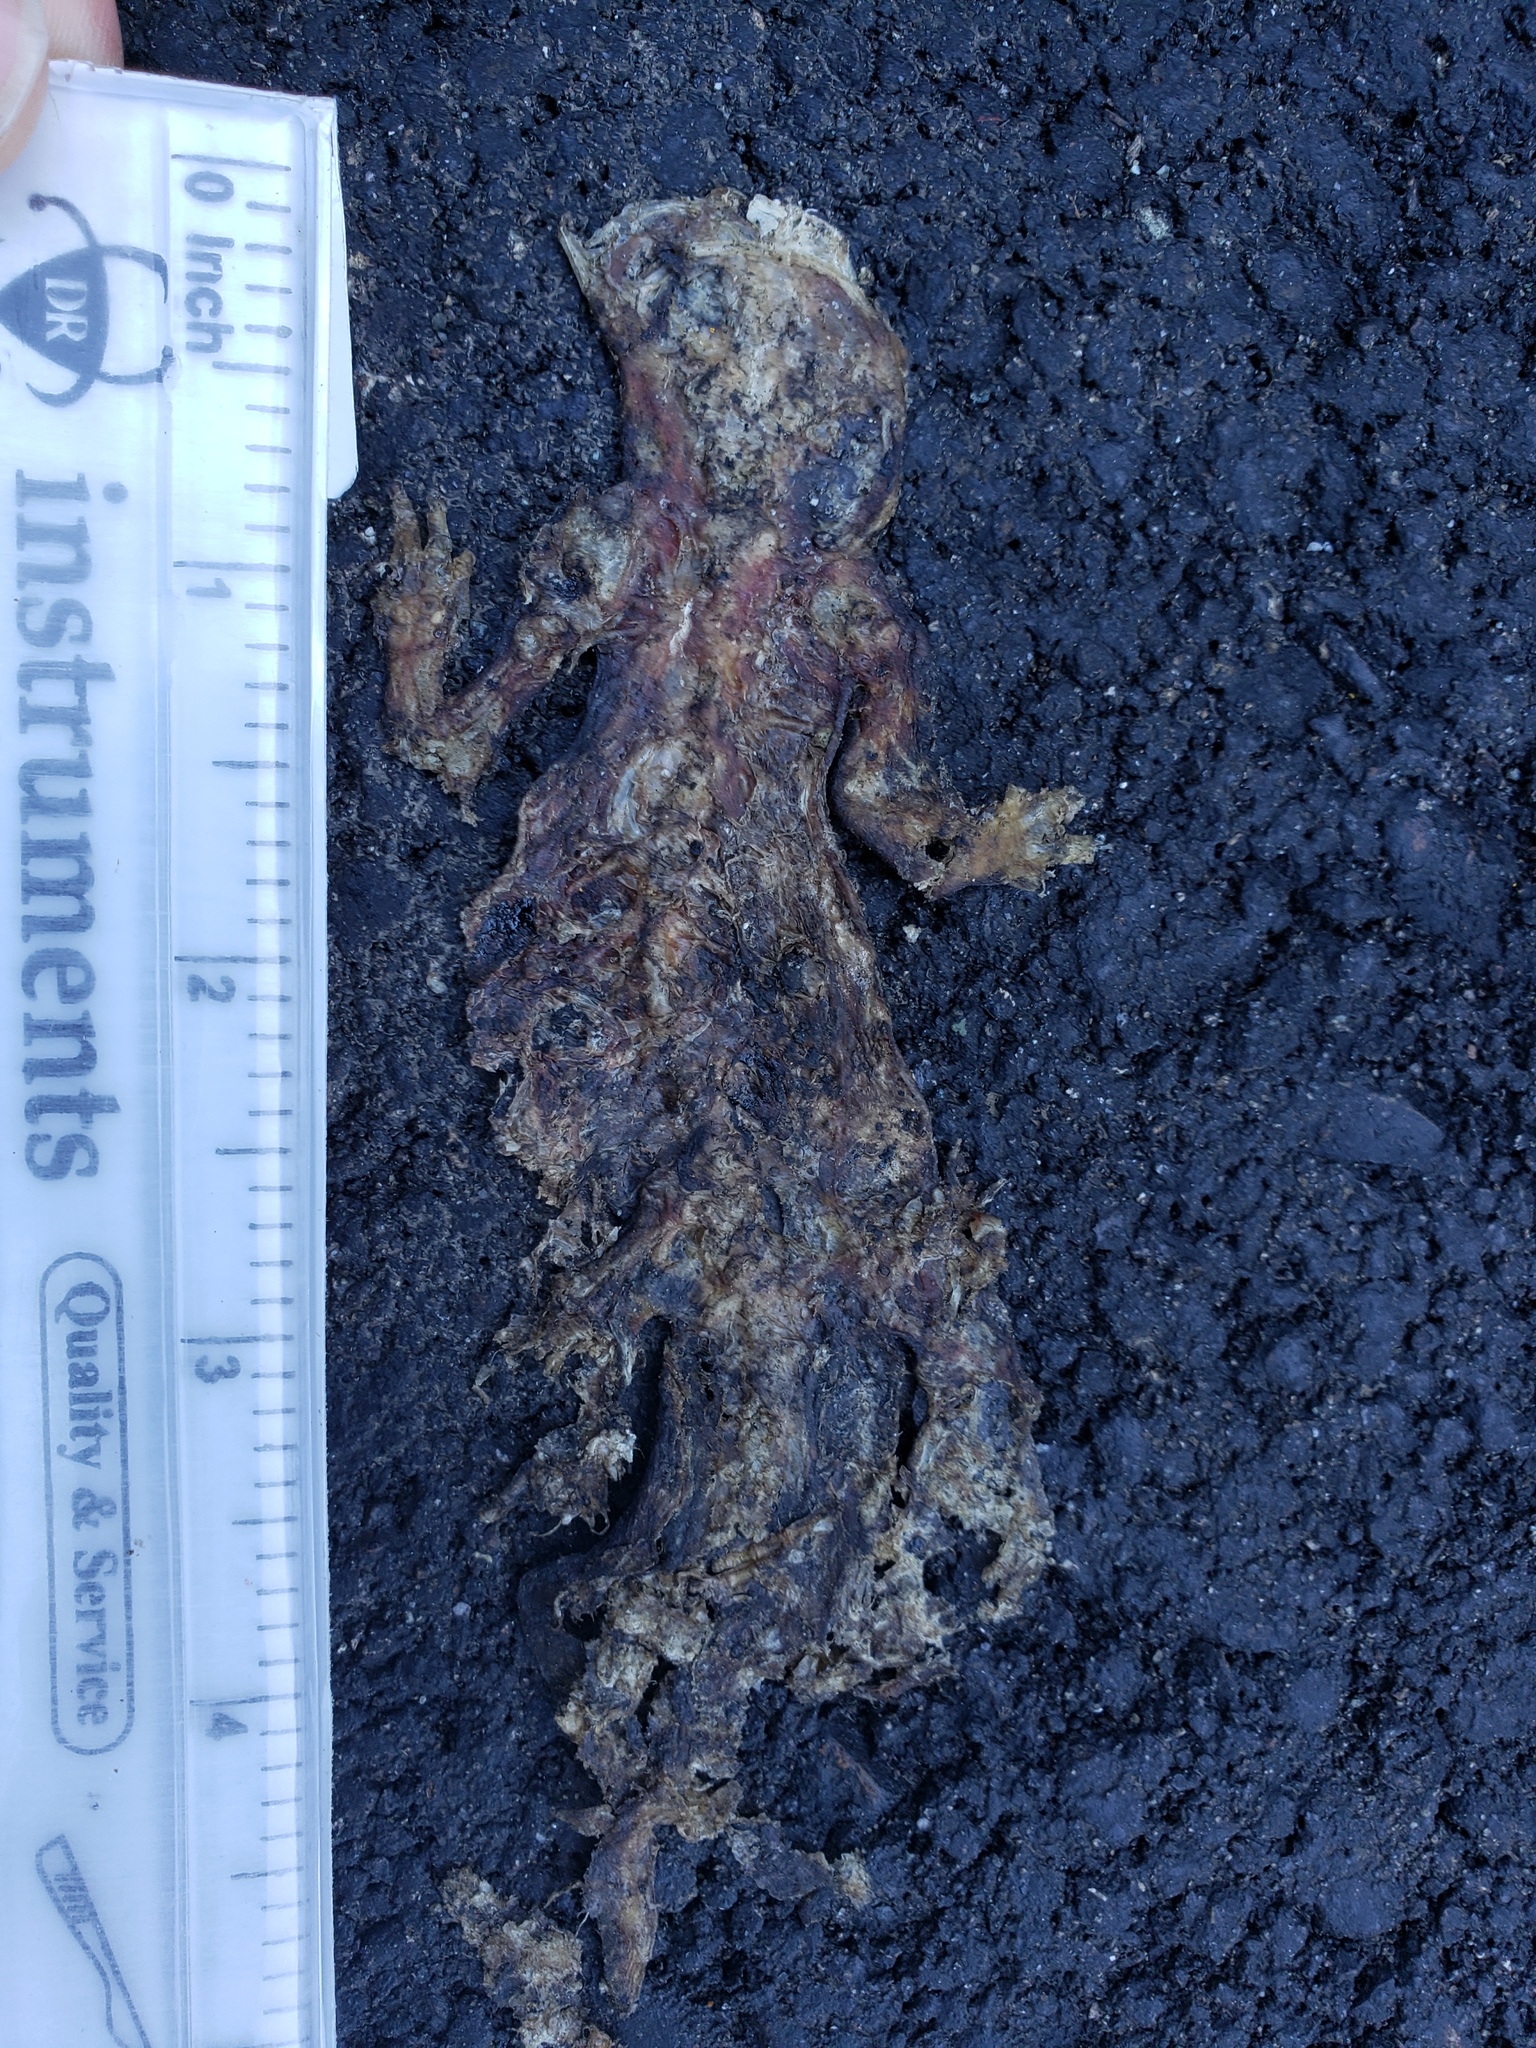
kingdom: Animalia
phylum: Chordata
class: Amphibia
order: Caudata
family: Salamandridae
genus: Taricha
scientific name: Taricha
